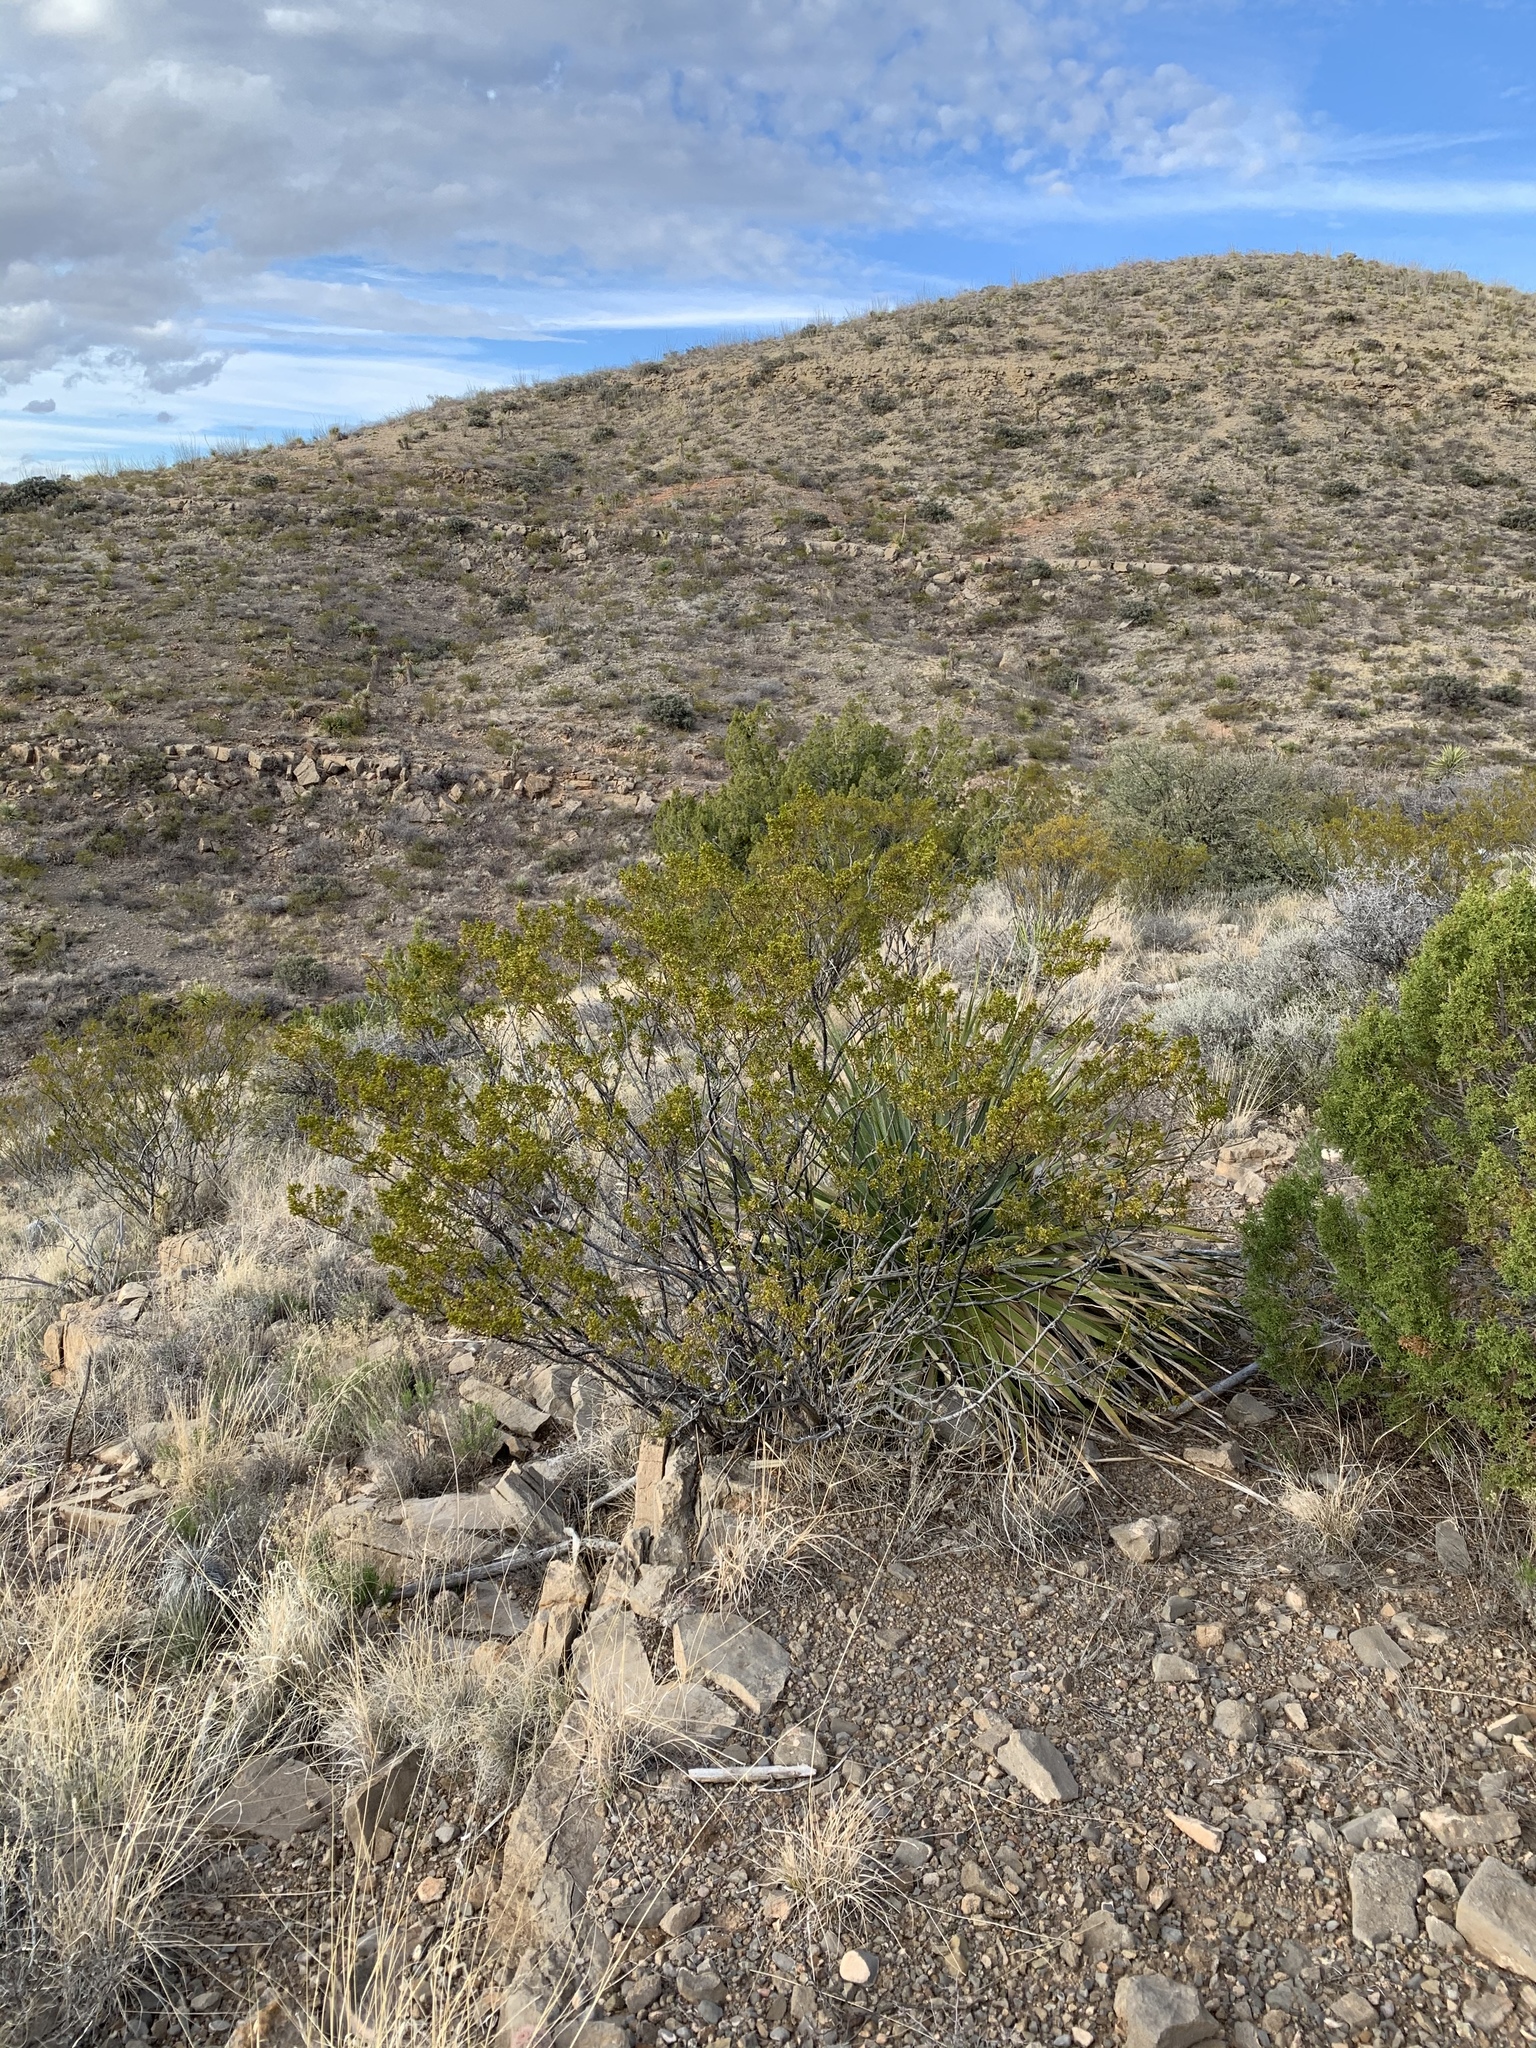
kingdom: Plantae
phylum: Tracheophyta
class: Magnoliopsida
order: Zygophyllales
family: Zygophyllaceae
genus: Larrea
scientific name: Larrea tridentata
